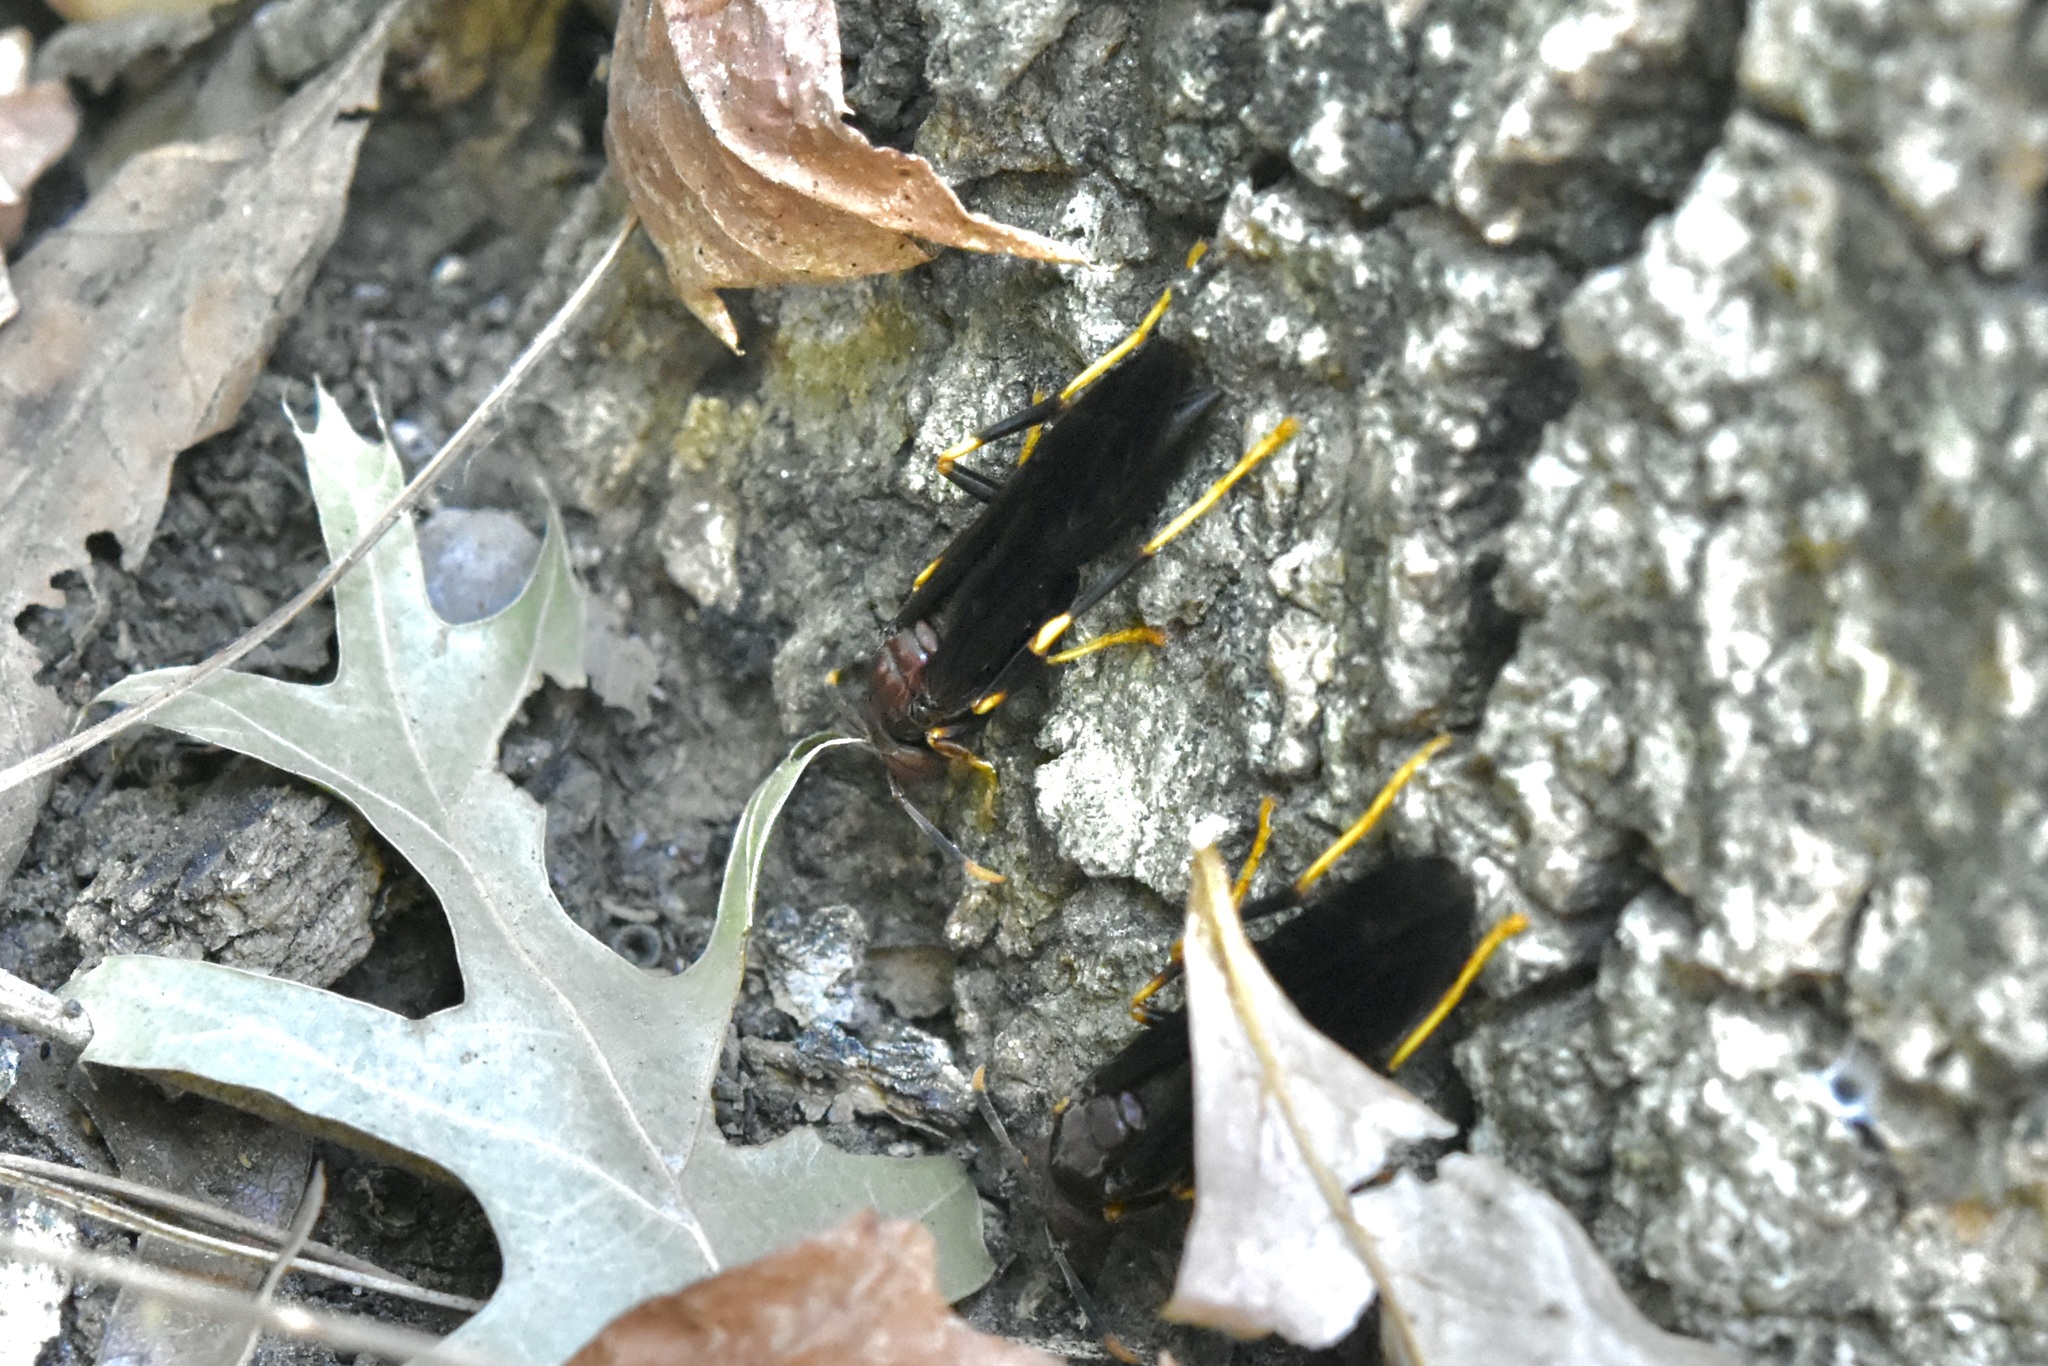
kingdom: Animalia
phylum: Arthropoda
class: Insecta
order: Hymenoptera
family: Eumenidae
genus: Polistes
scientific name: Polistes annularis
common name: Ringed paper wasp
